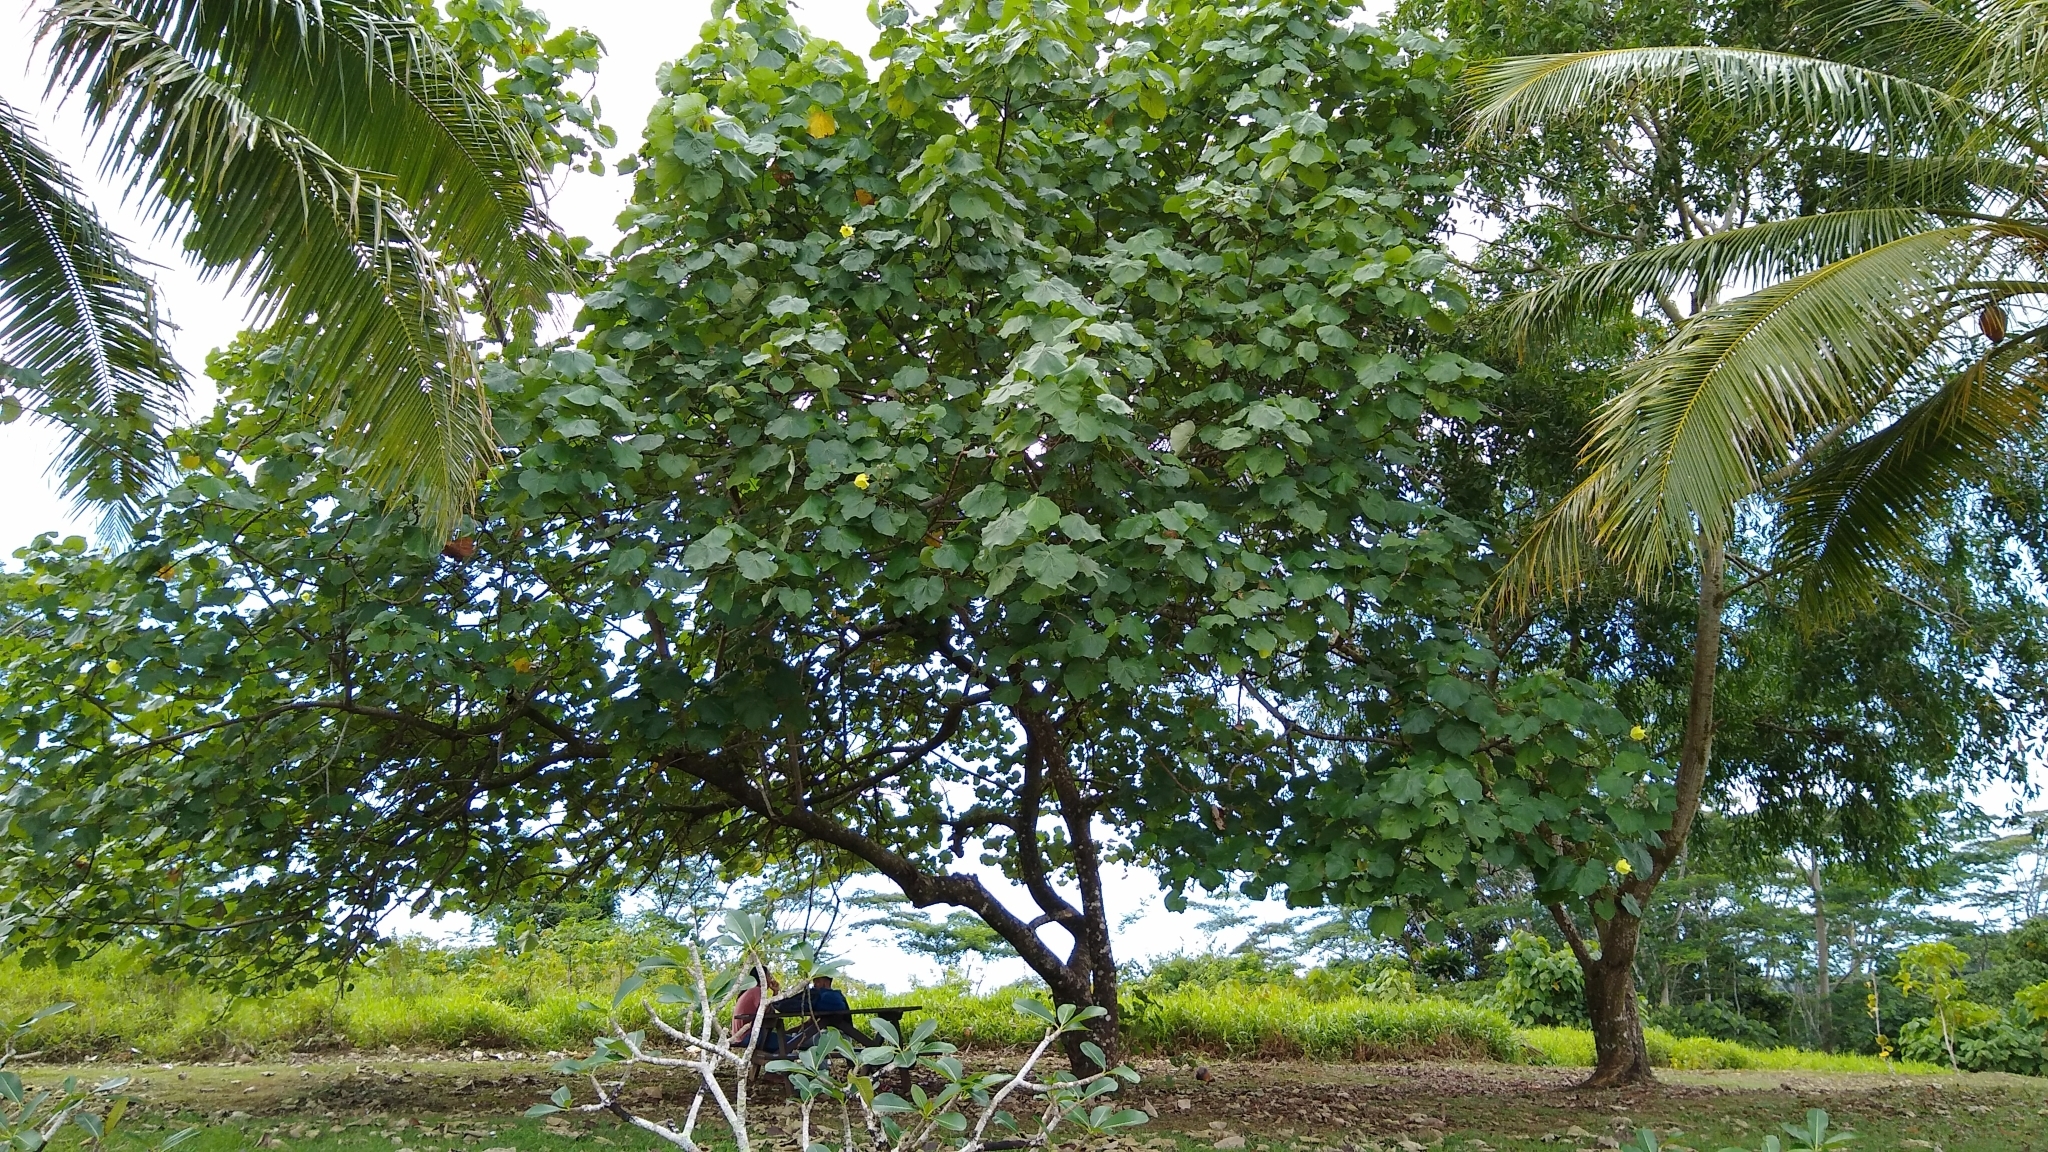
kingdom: Plantae
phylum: Tracheophyta
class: Magnoliopsida
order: Malvales
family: Malvaceae
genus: Talipariti
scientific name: Talipariti tiliaceum
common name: Sea hibiscus
